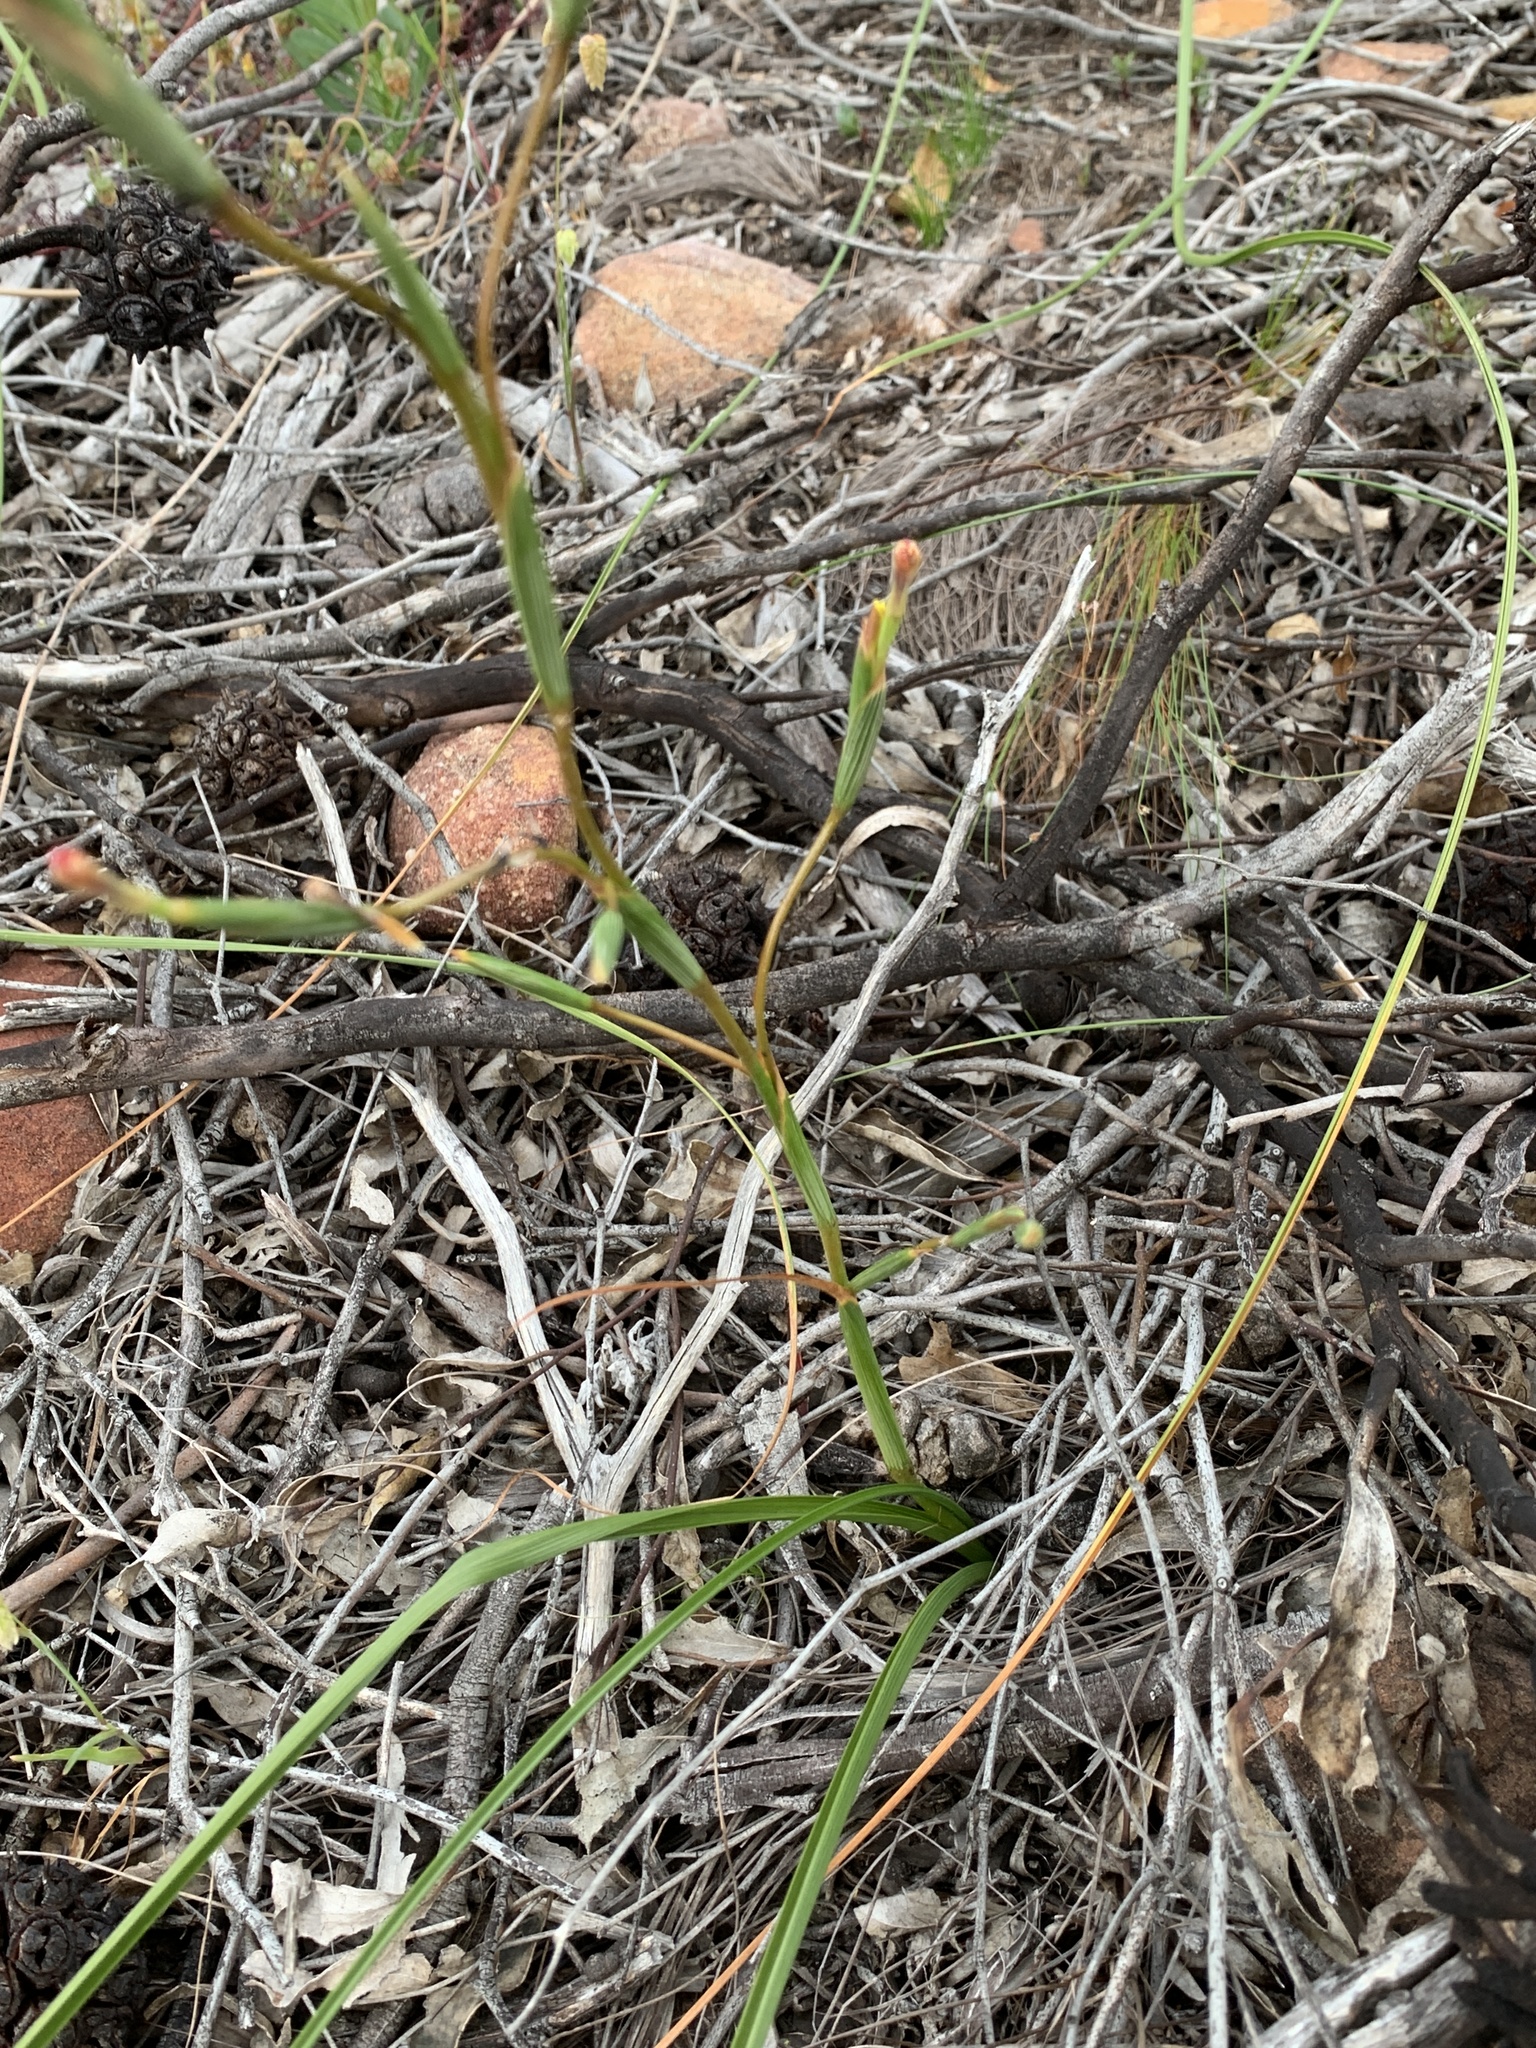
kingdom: Plantae
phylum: Tracheophyta
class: Liliopsida
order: Asparagales
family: Iridaceae
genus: Moraea
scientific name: Moraea bituminosa
